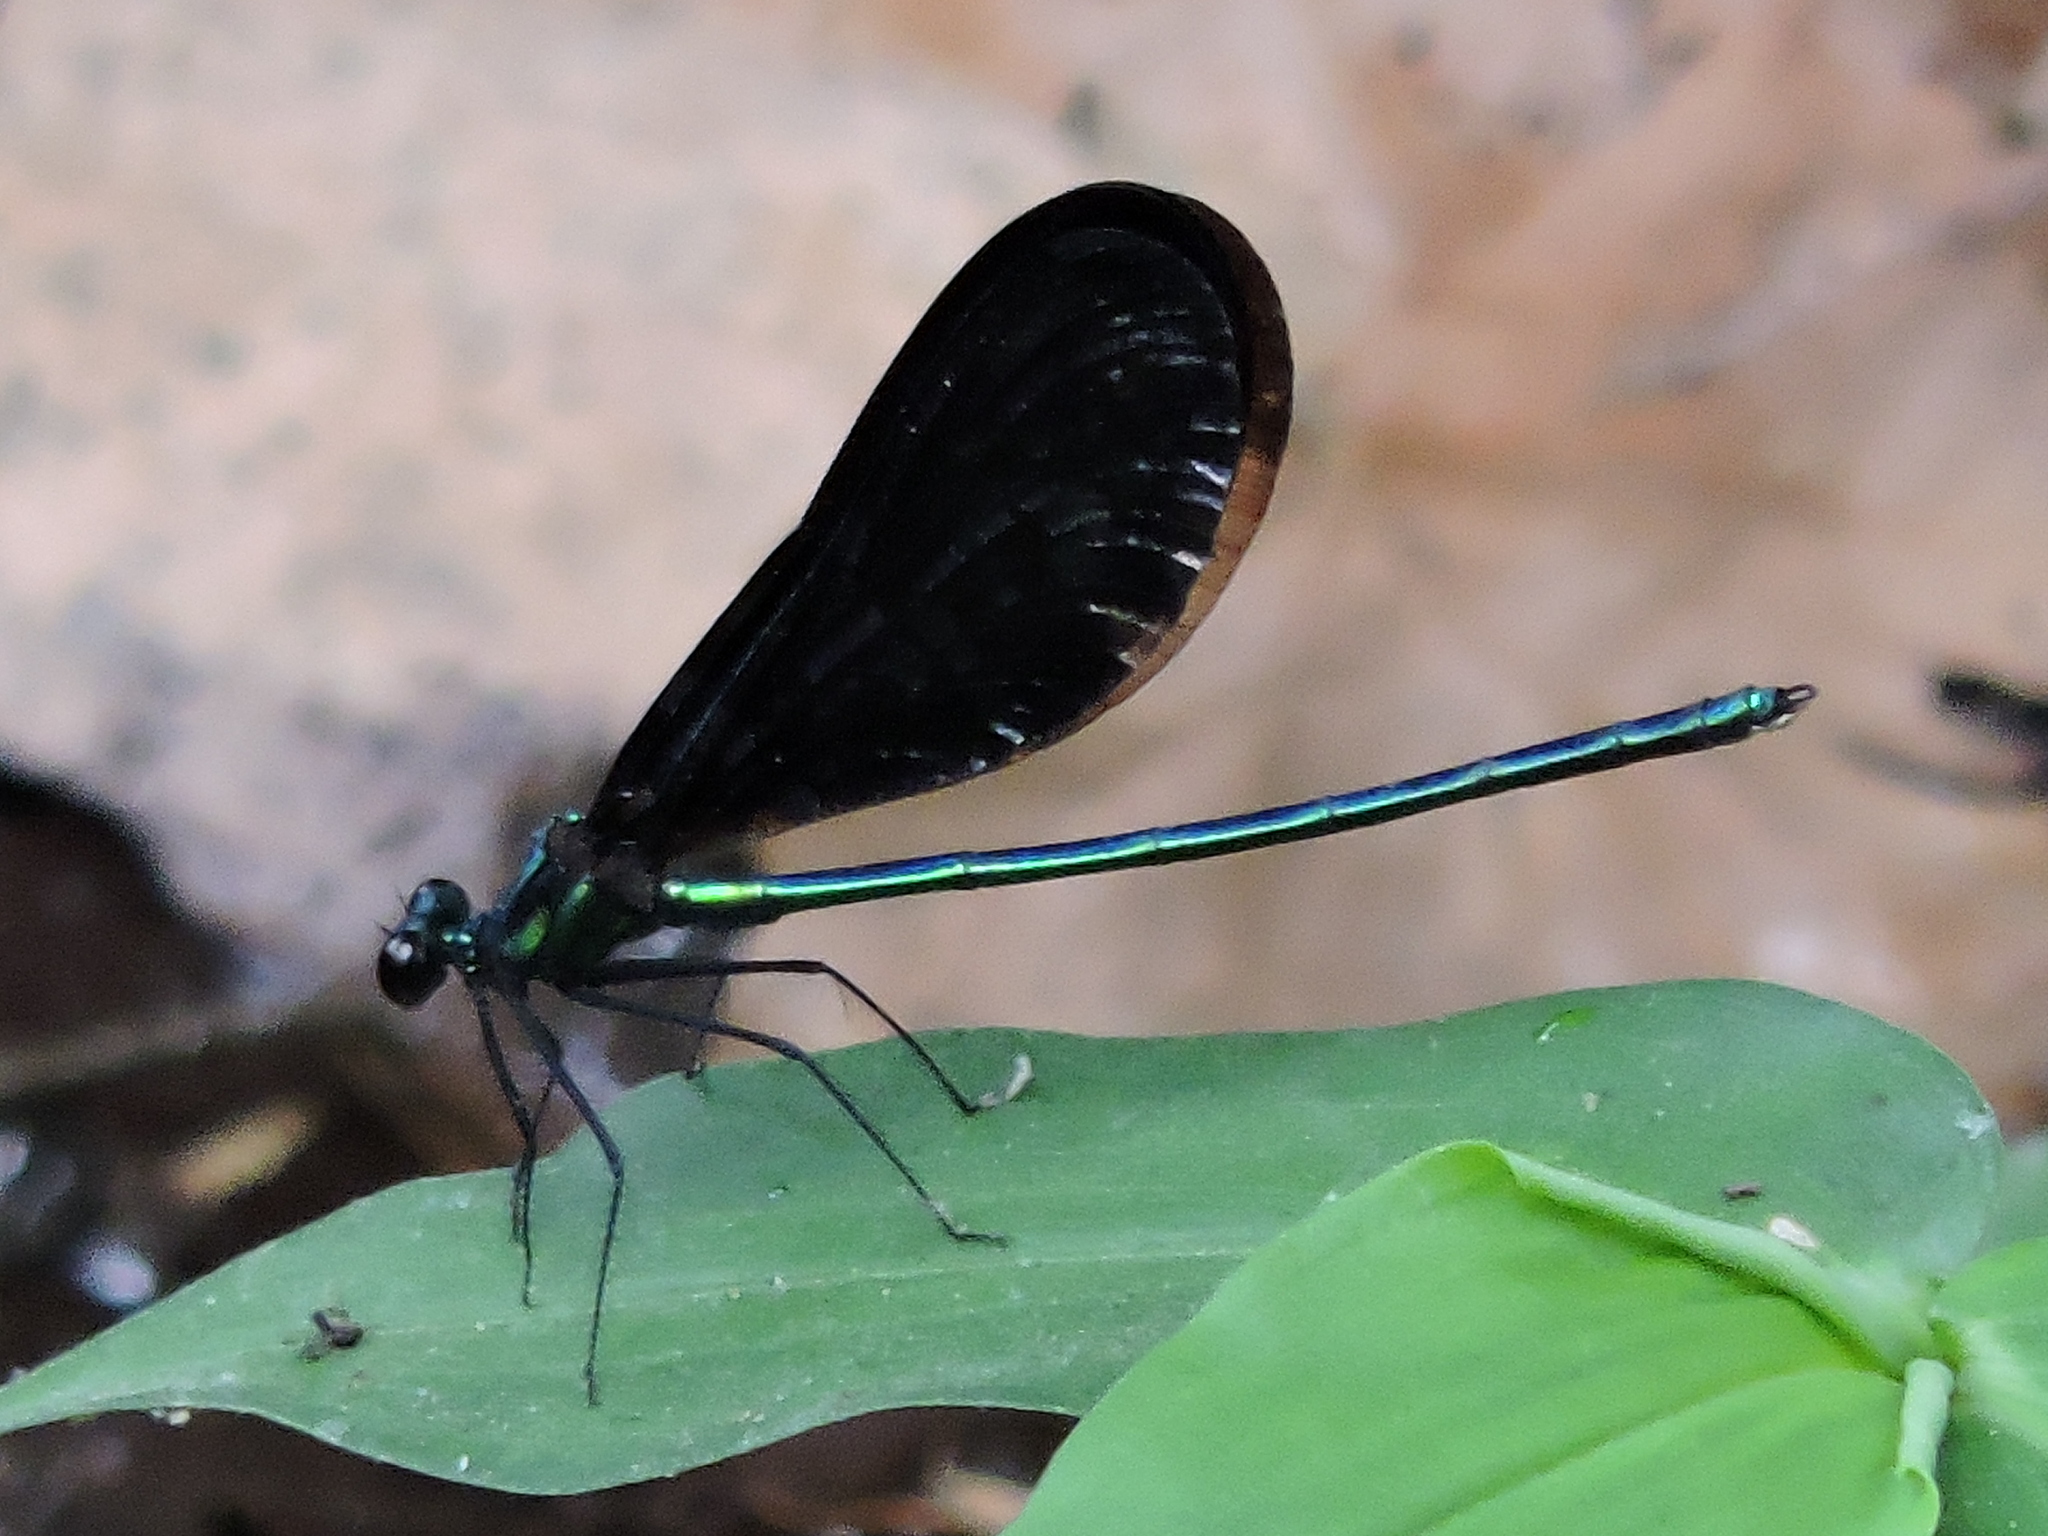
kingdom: Animalia
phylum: Arthropoda
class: Insecta
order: Odonata
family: Calopterygidae
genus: Calopteryx
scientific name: Calopteryx maculata
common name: Ebony jewelwing
